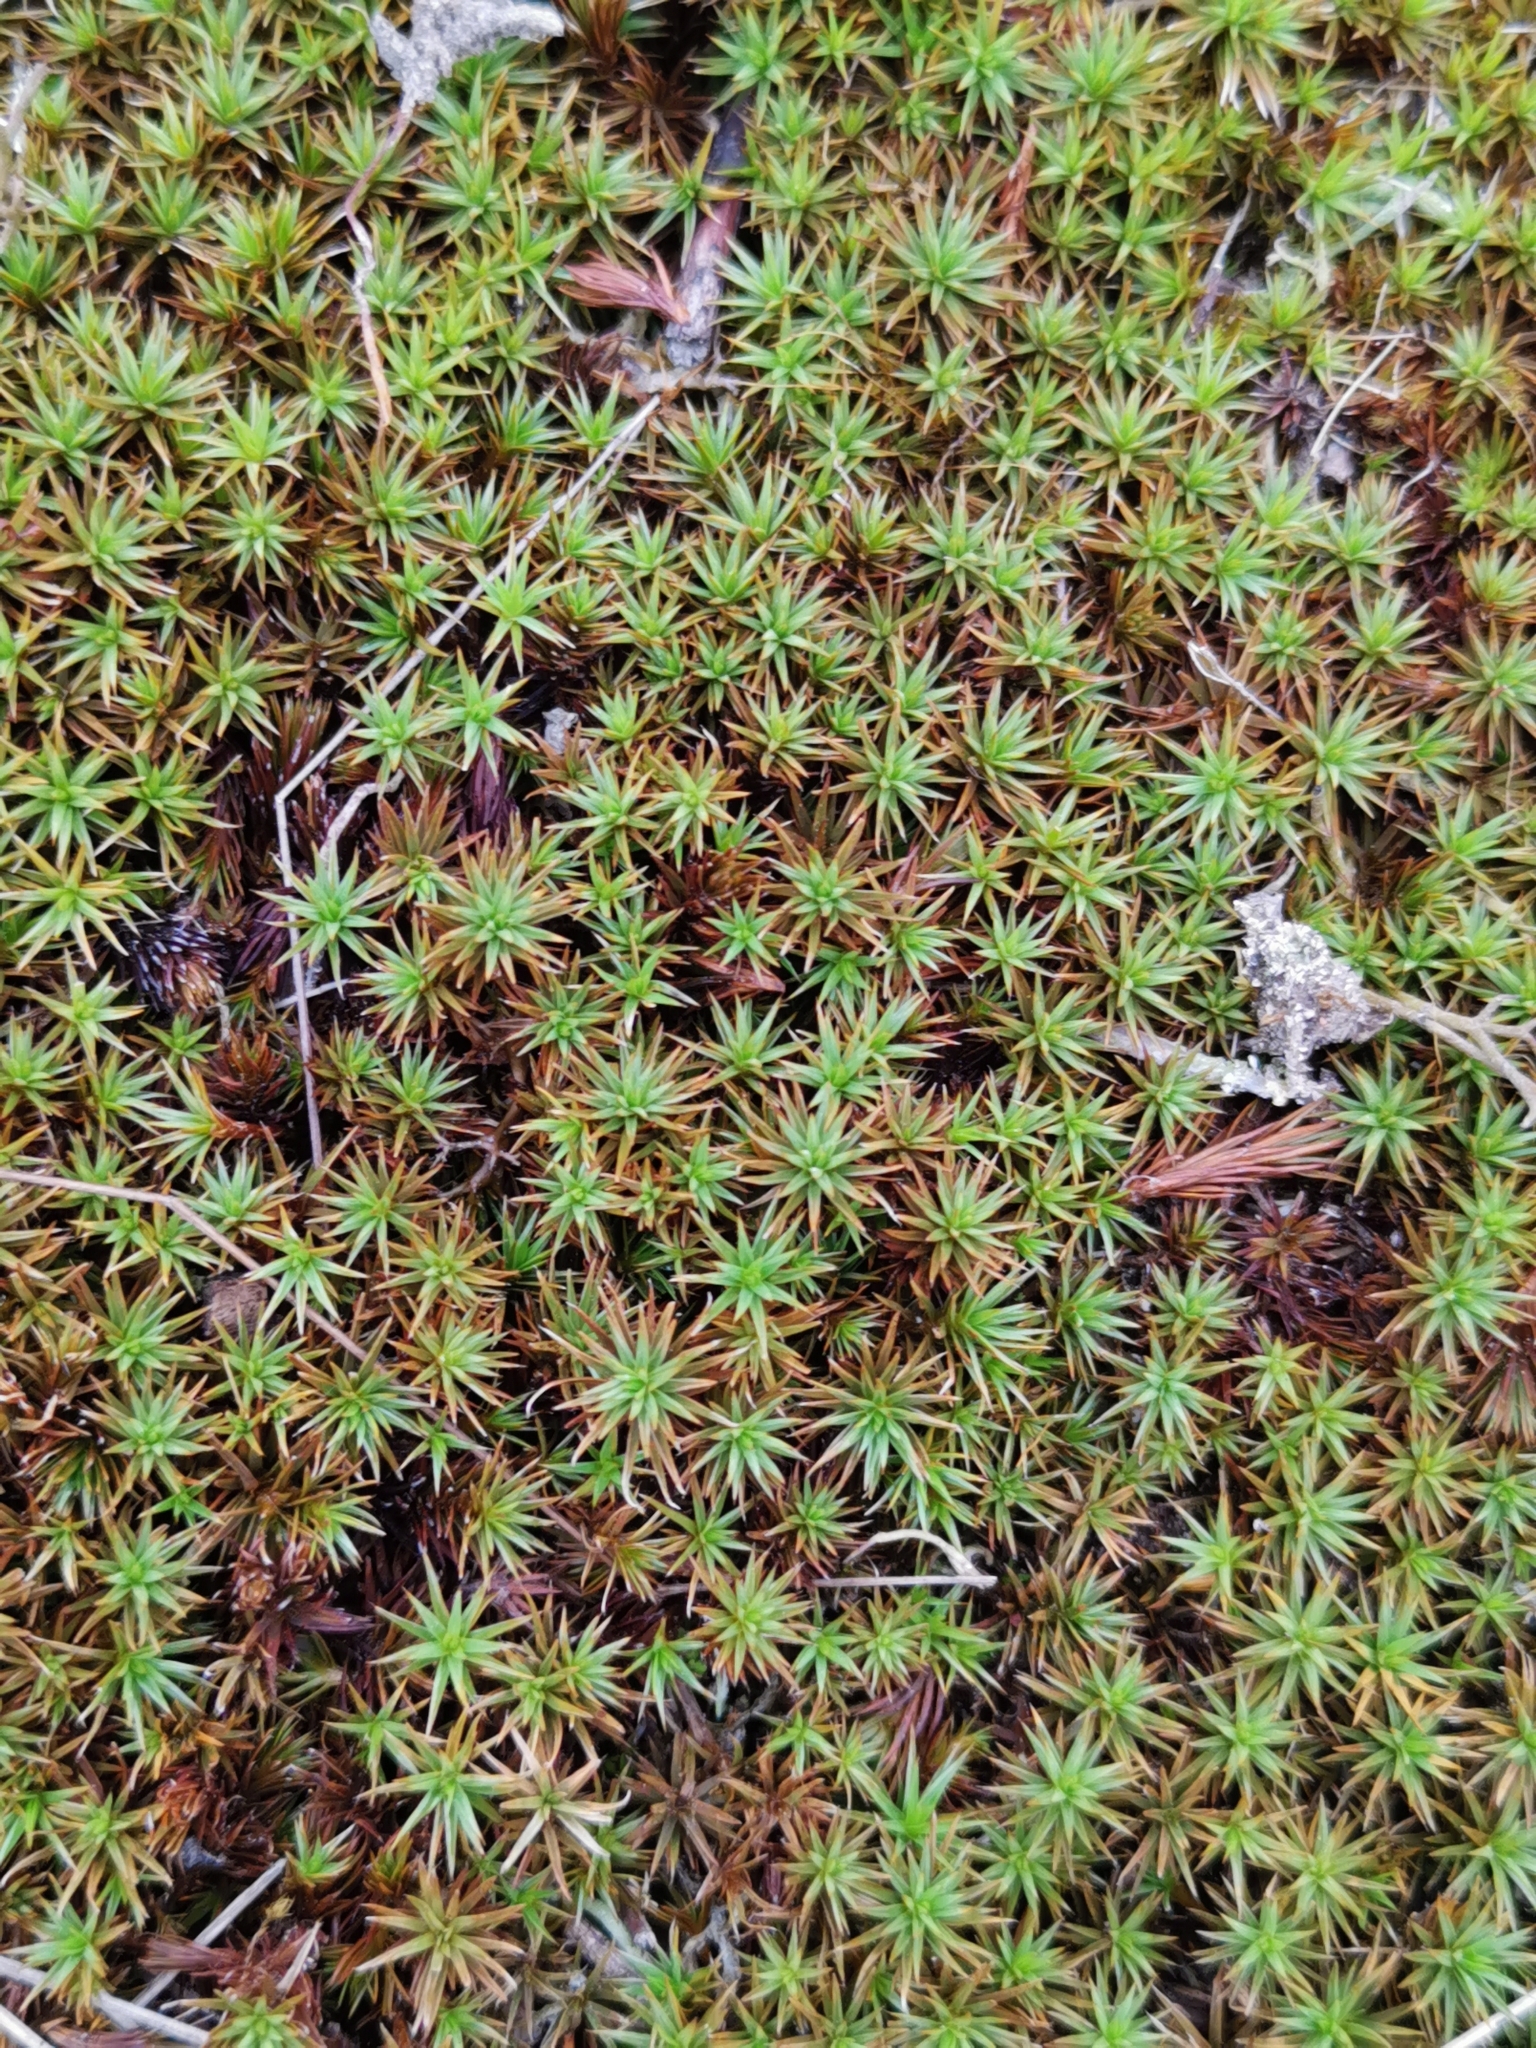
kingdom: Plantae
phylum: Bryophyta
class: Polytrichopsida
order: Polytrichales
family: Polytrichaceae
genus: Polytrichum
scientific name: Polytrichum juniperinum
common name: Juniper haircap moss
